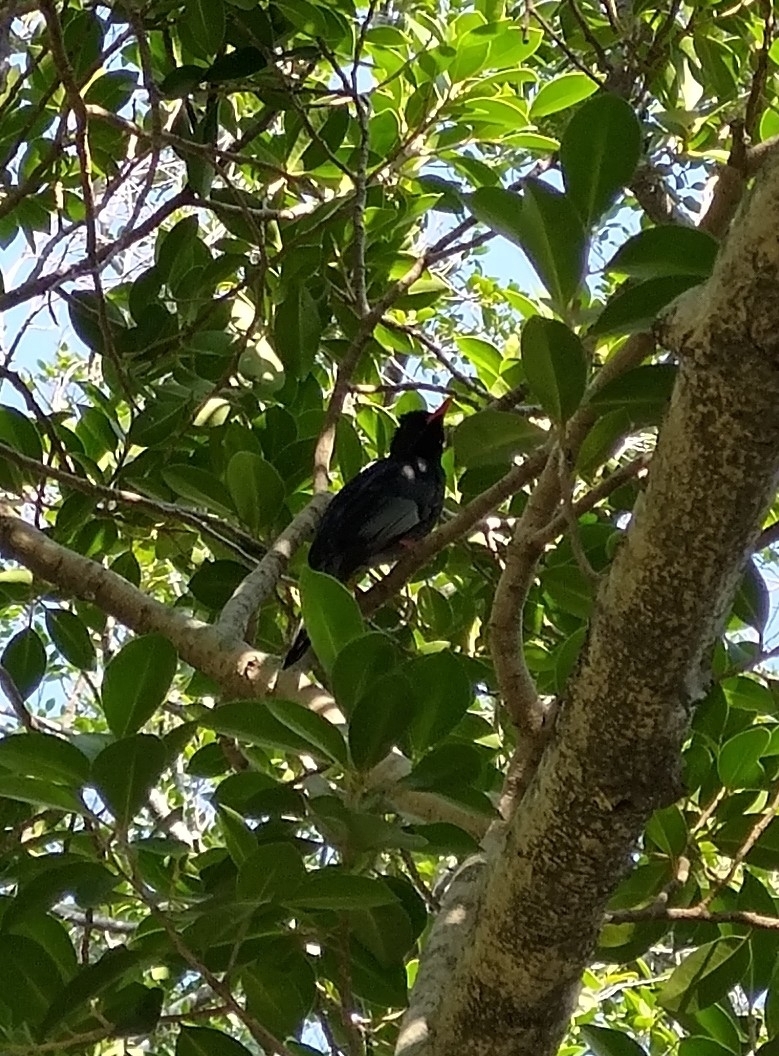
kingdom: Animalia
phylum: Chordata
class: Aves
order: Passeriformes
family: Pycnonotidae
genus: Hypsipetes
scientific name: Hypsipetes leucocephalus
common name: Black bulbul
